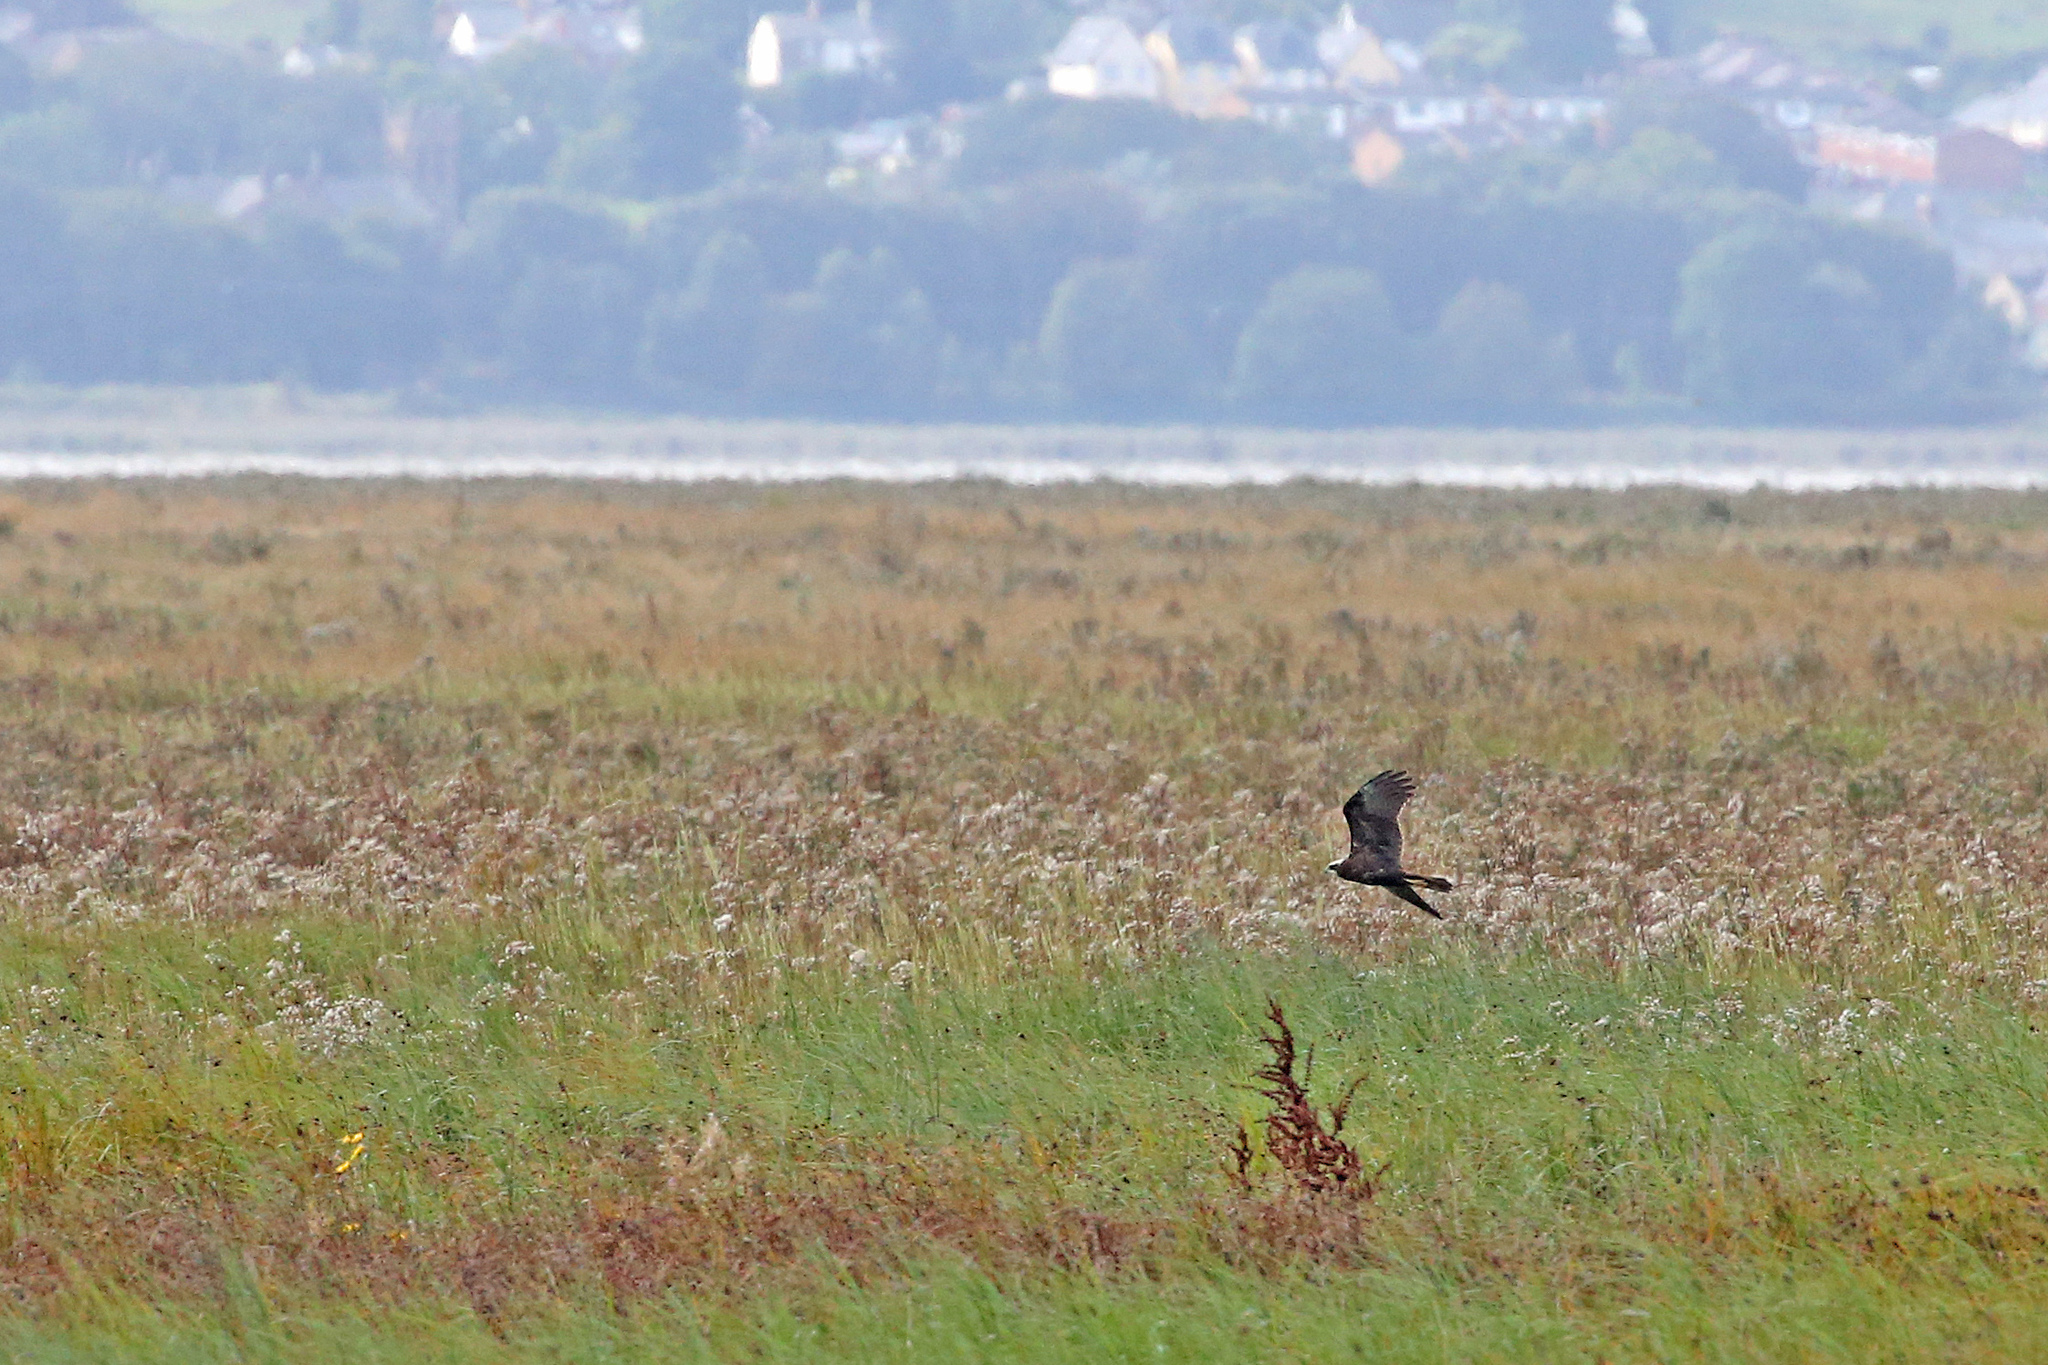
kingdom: Animalia
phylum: Chordata
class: Aves
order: Accipitriformes
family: Accipitridae
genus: Circus
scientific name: Circus aeruginosus
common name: Western marsh harrier
